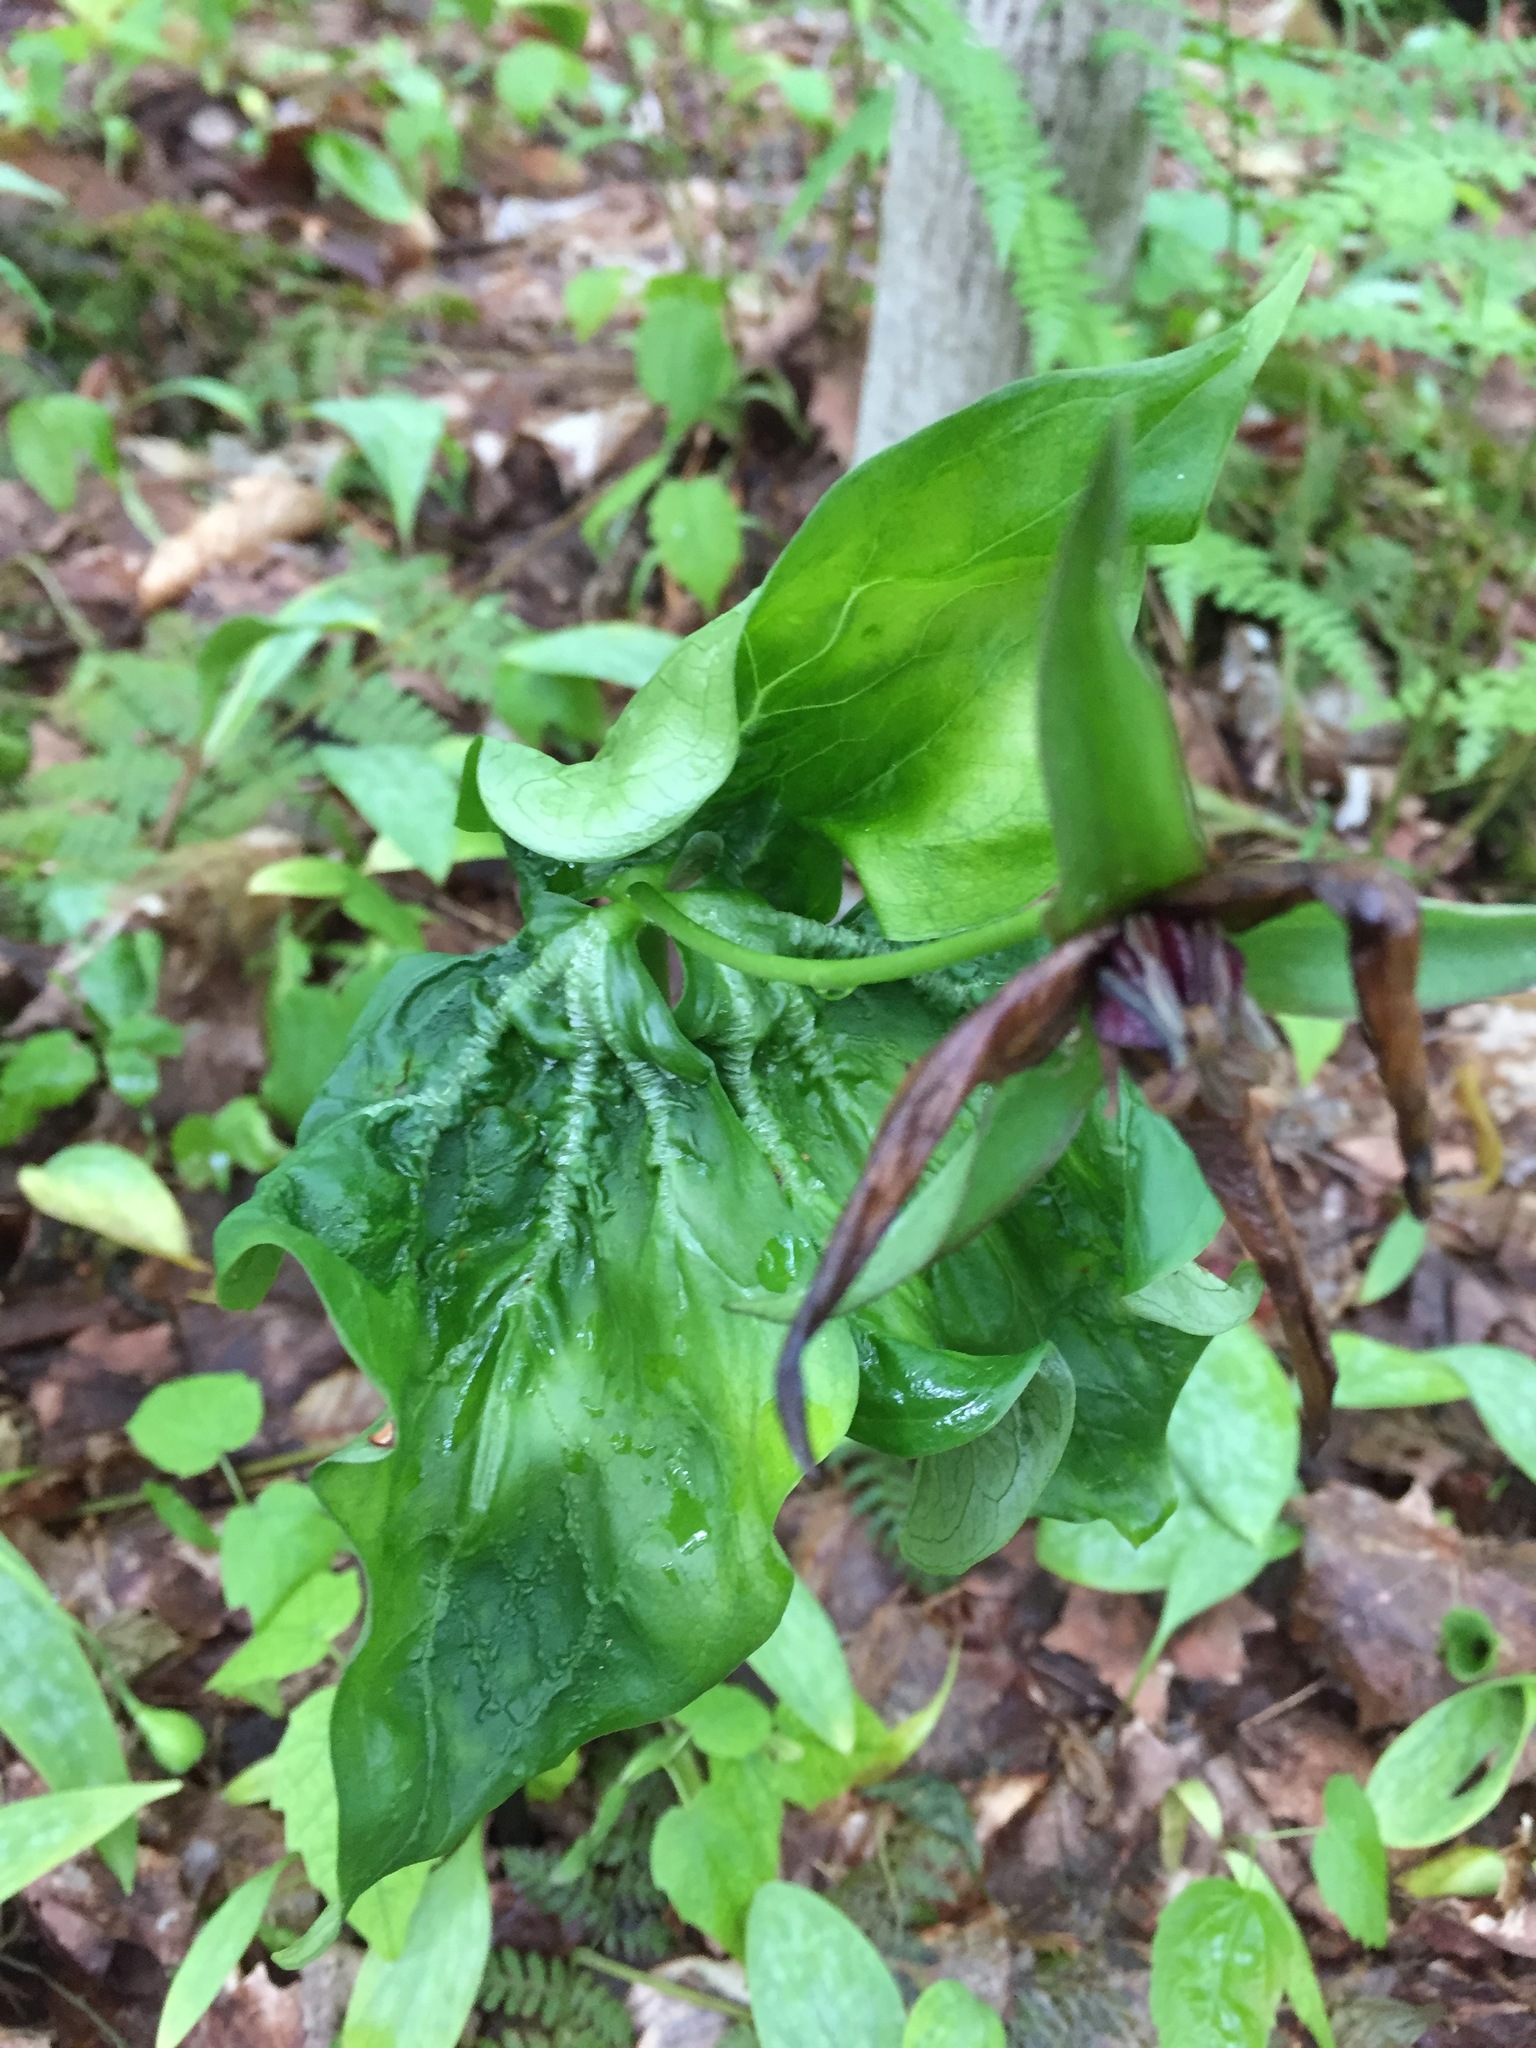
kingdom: Plantae
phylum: Tracheophyta
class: Liliopsida
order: Liliales
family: Melanthiaceae
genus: Trillium
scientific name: Trillium erectum
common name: Purple trillium
